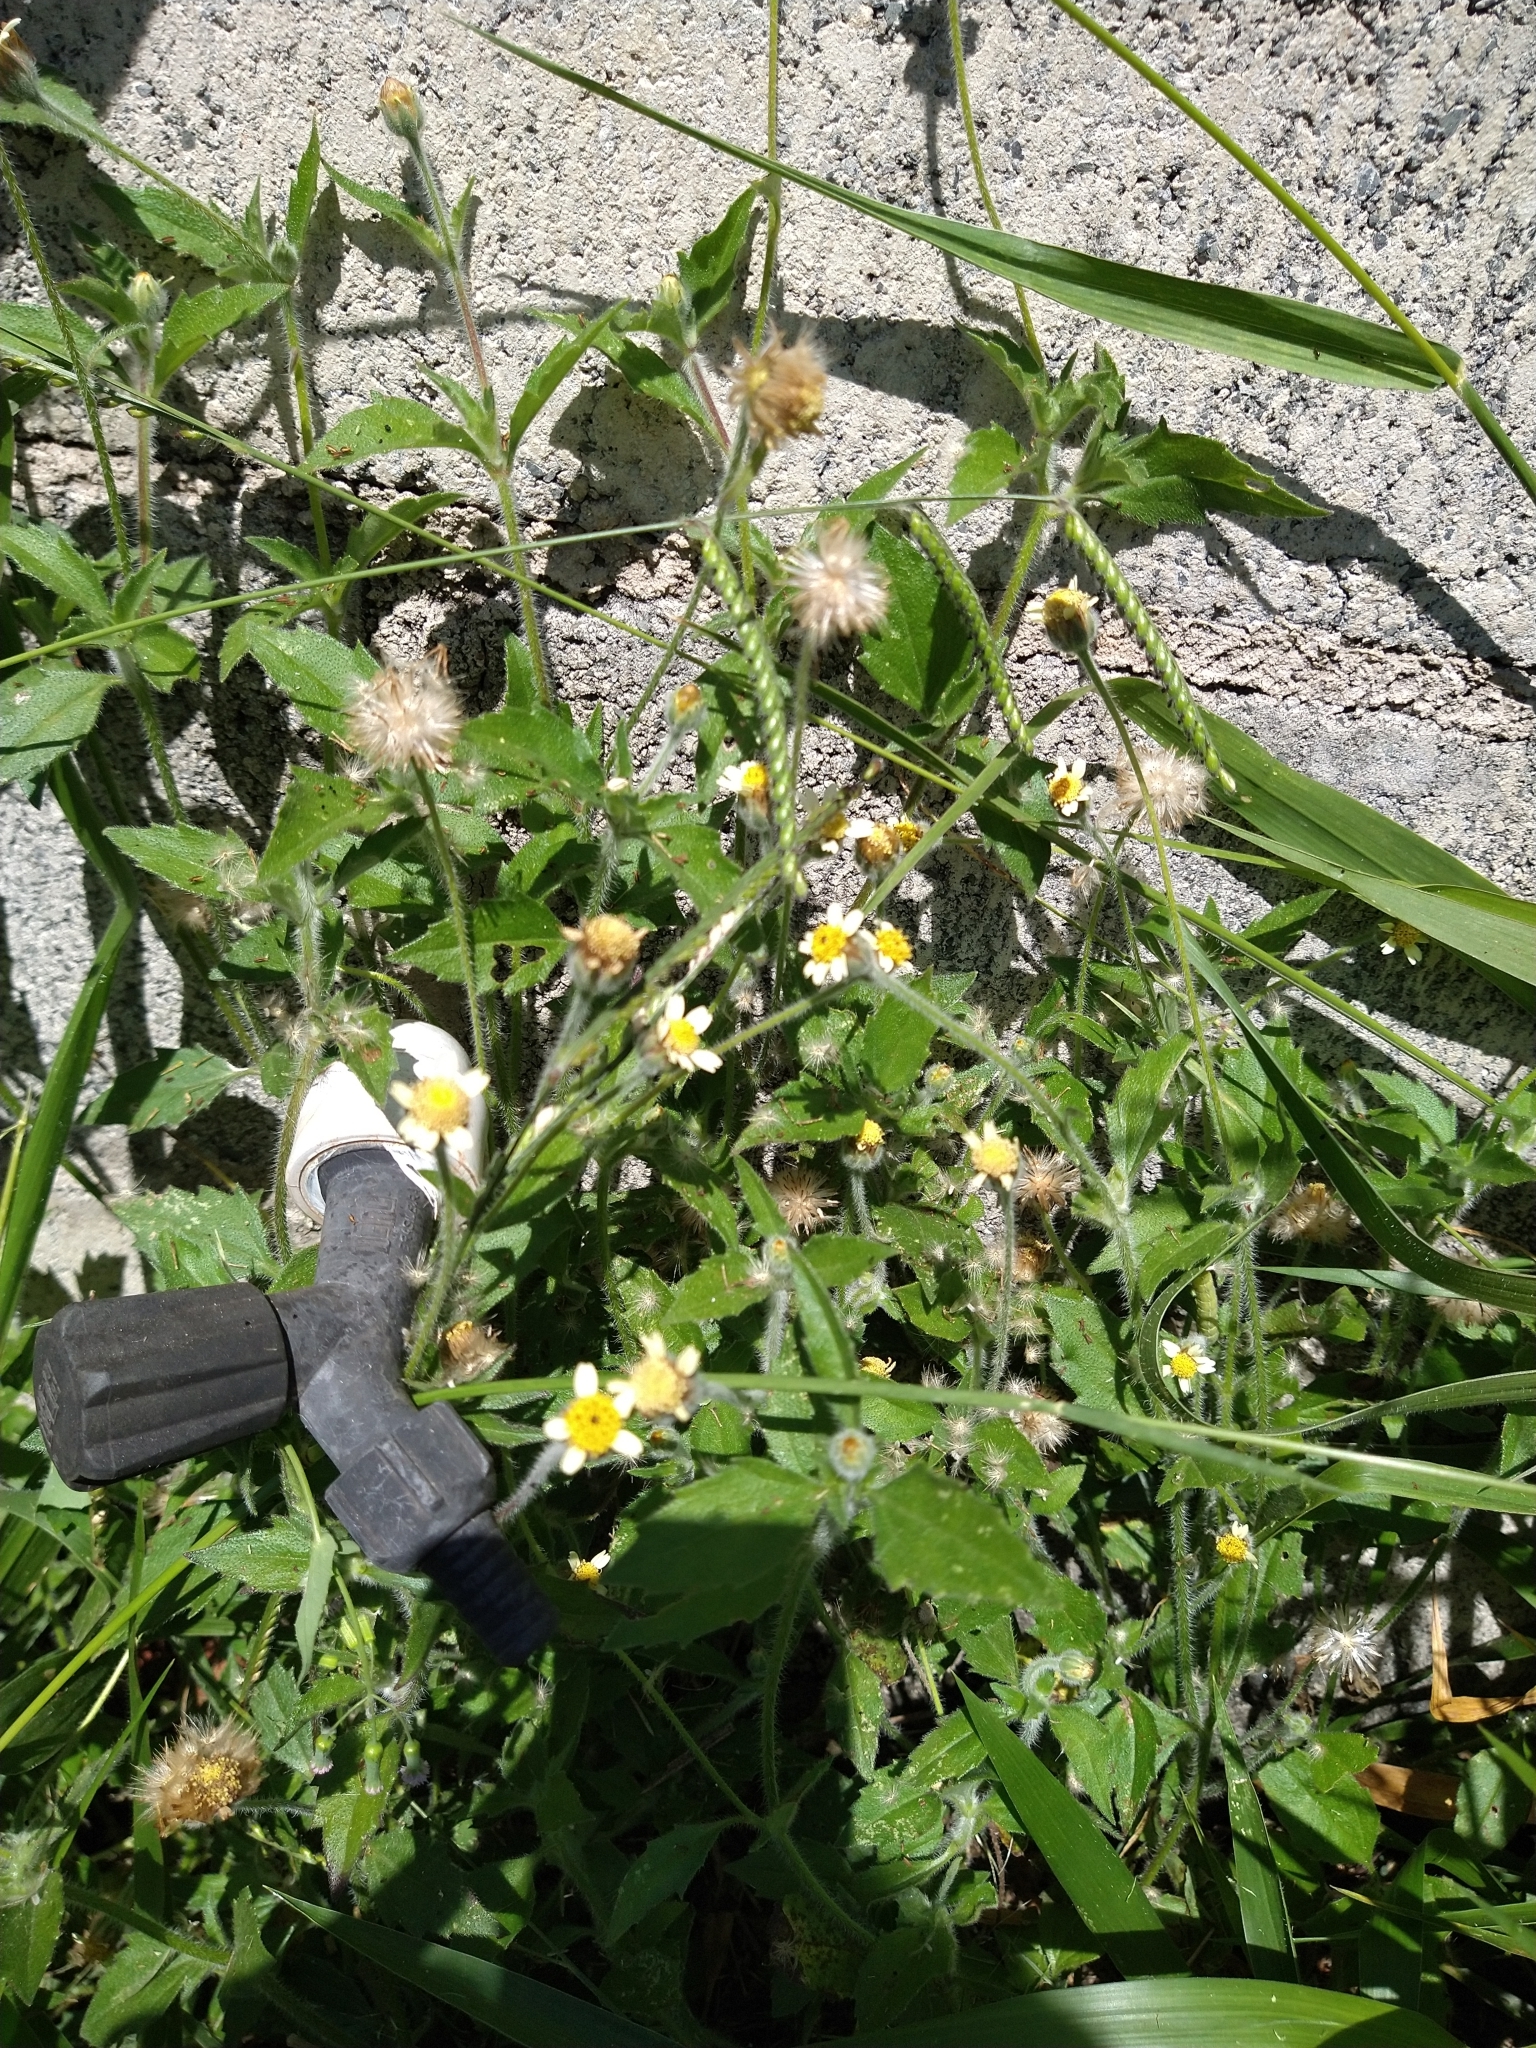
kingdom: Plantae
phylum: Tracheophyta
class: Magnoliopsida
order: Asterales
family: Asteraceae
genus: Tridax
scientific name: Tridax procumbens
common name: Coatbuttons
